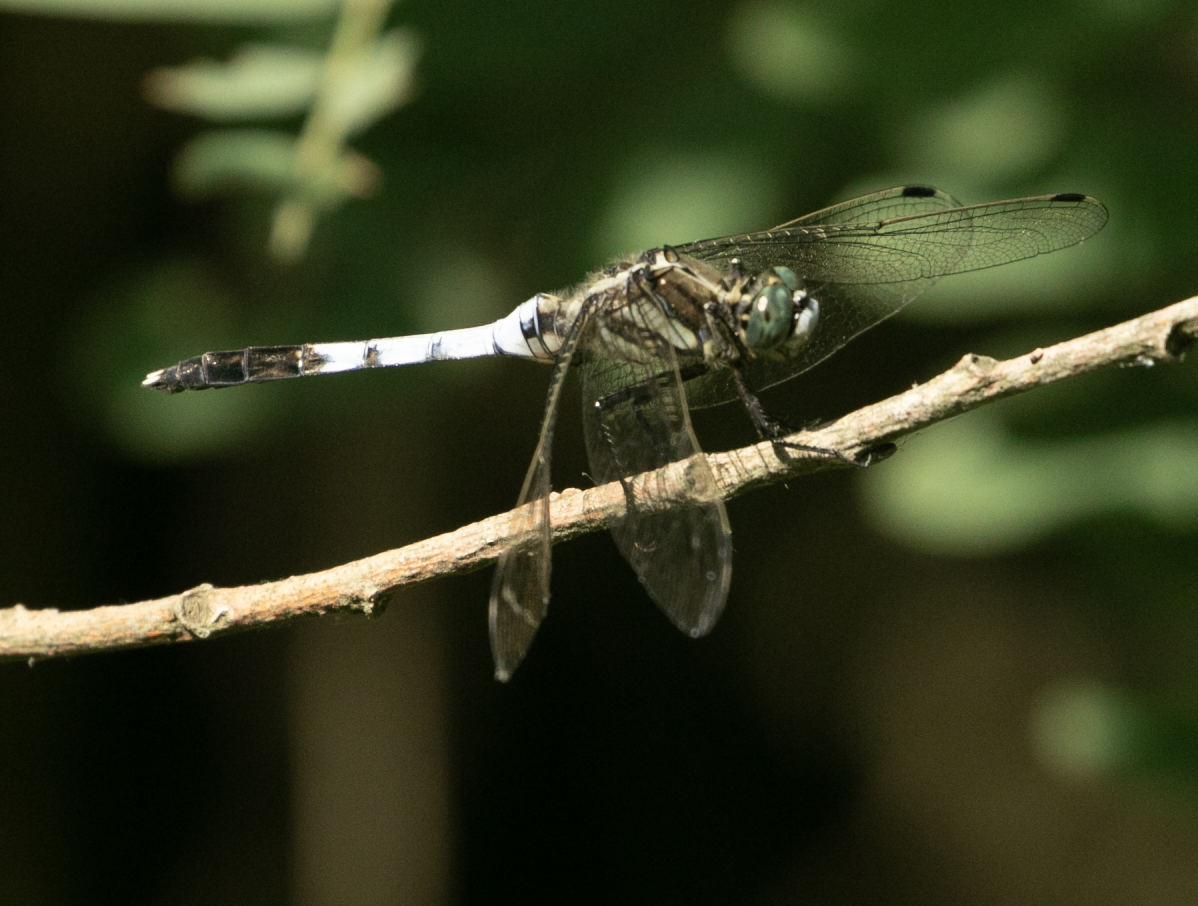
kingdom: Animalia
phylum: Arthropoda
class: Insecta
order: Odonata
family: Libellulidae
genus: Orthetrum
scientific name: Orthetrum albistylum
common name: White-tailed skimmer
